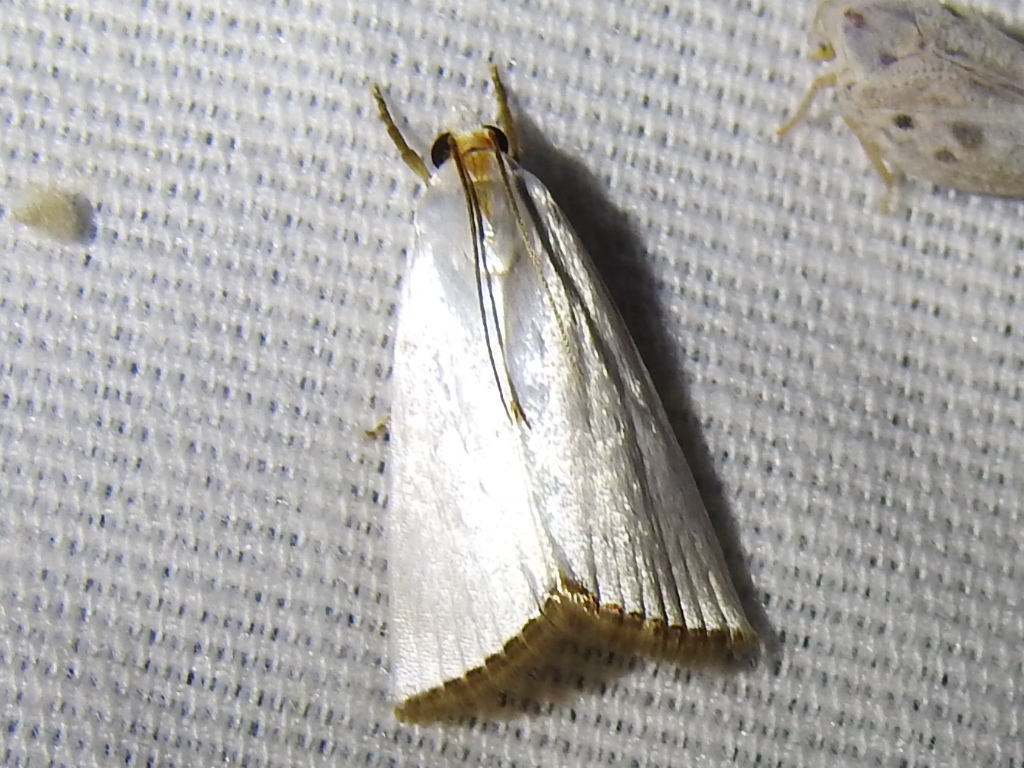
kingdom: Animalia
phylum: Arthropoda
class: Insecta
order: Lepidoptera
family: Crambidae
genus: Argyria
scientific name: Argyria nivalis
